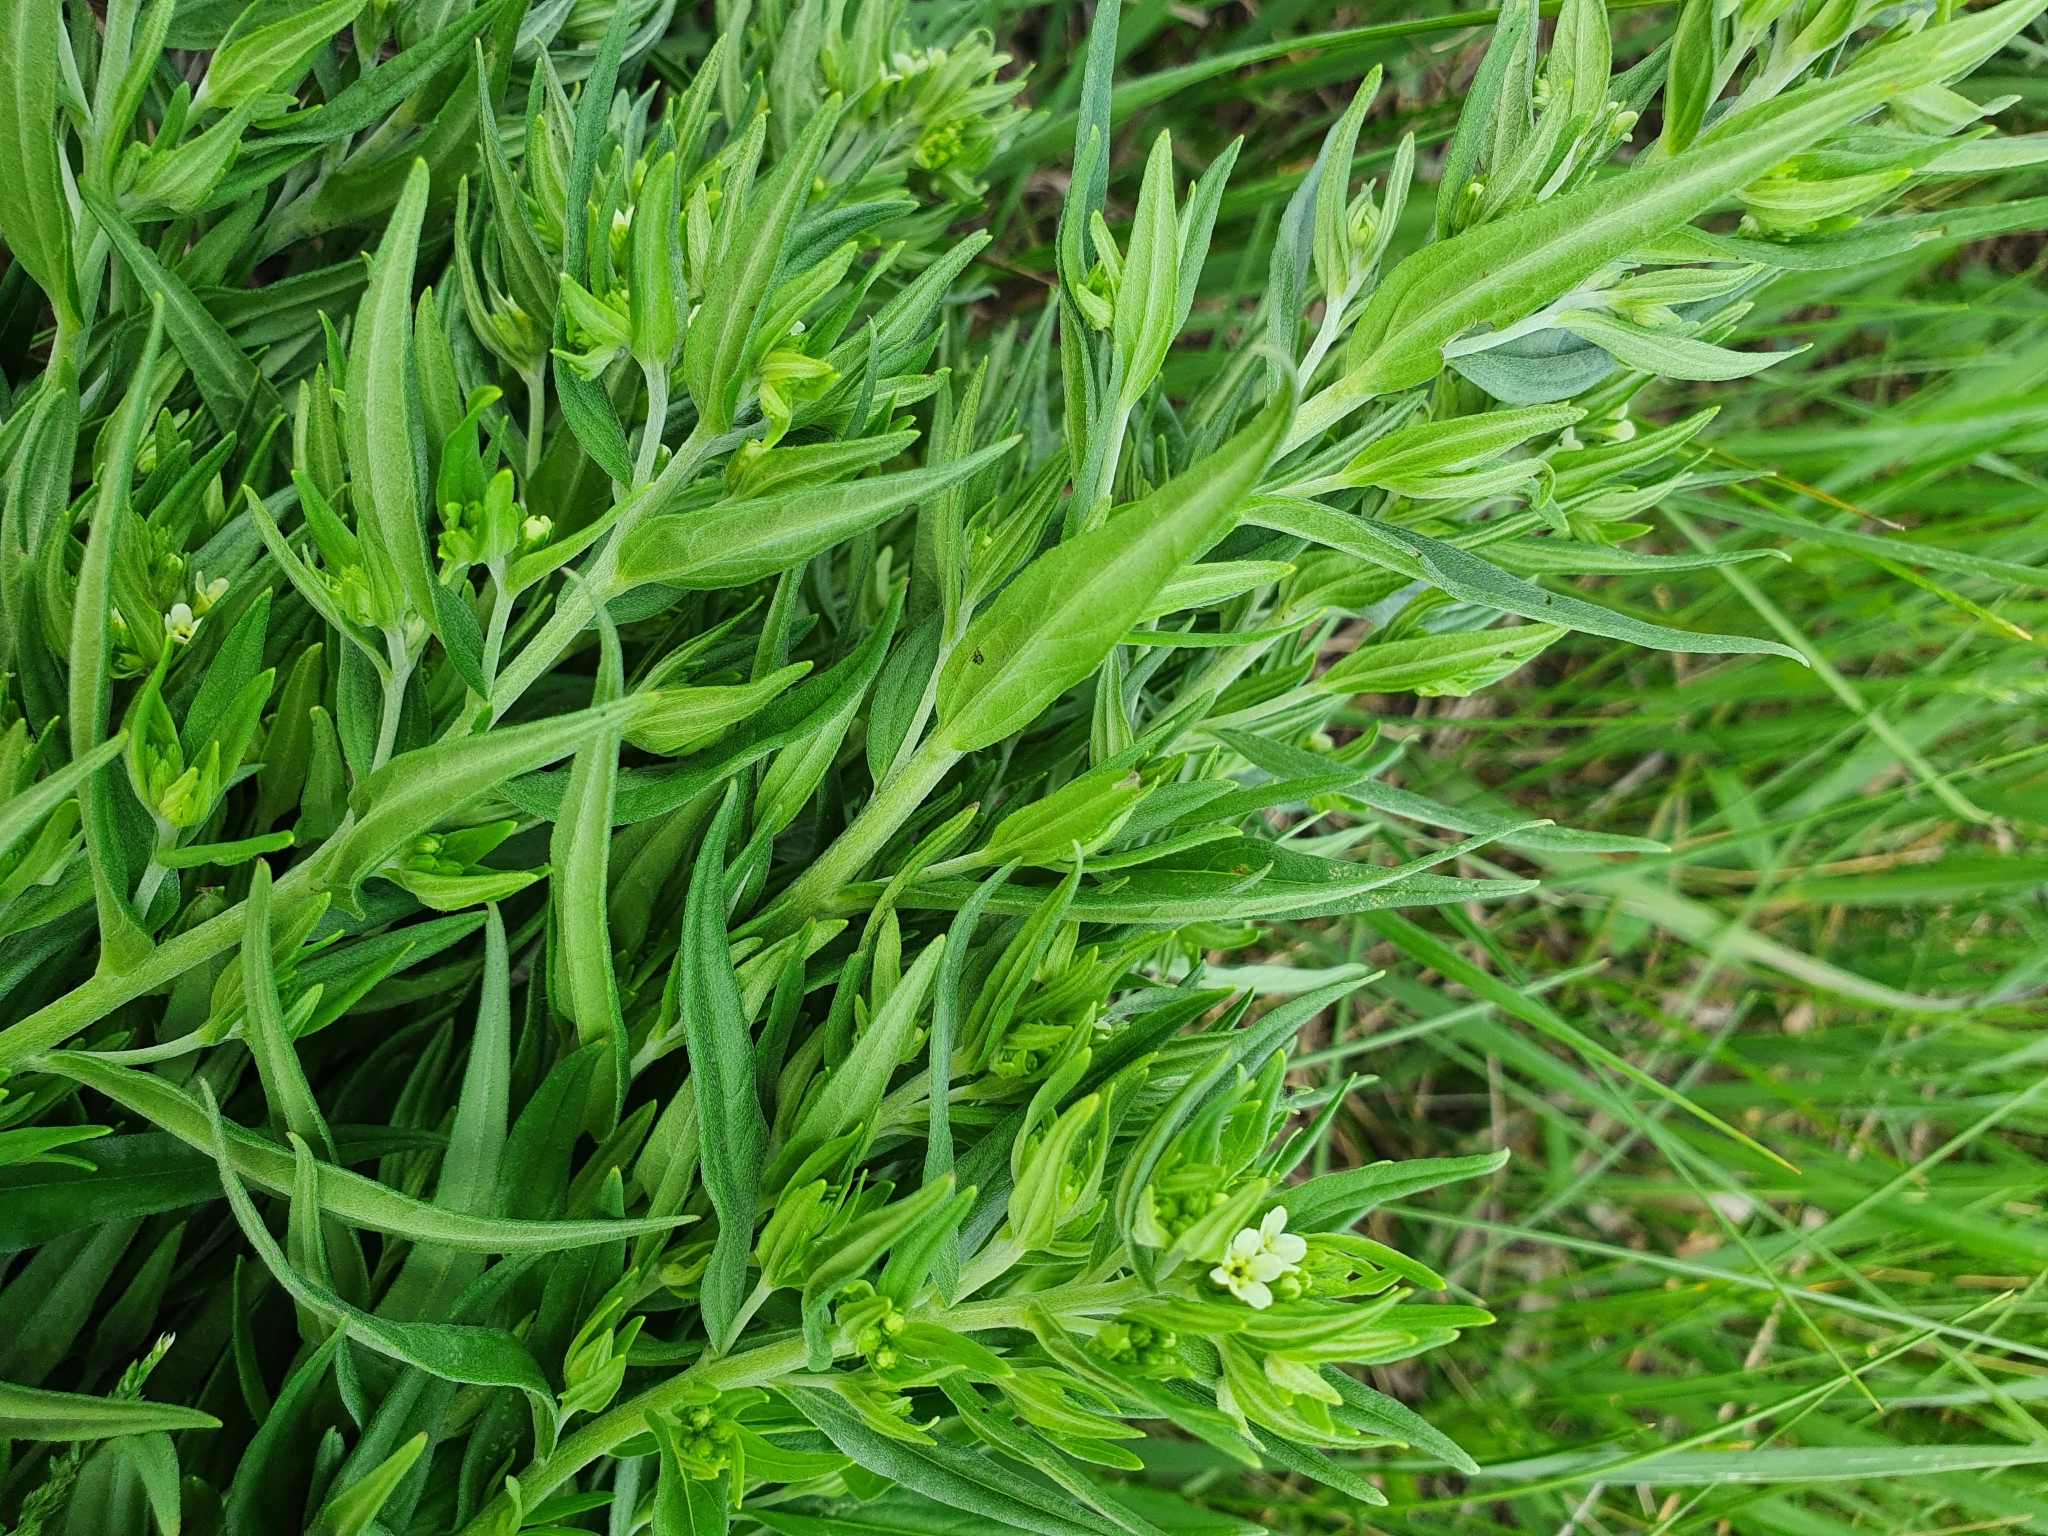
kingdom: Plantae
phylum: Tracheophyta
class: Magnoliopsida
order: Boraginales
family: Boraginaceae
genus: Lithospermum
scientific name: Lithospermum officinale
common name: Common gromwell
